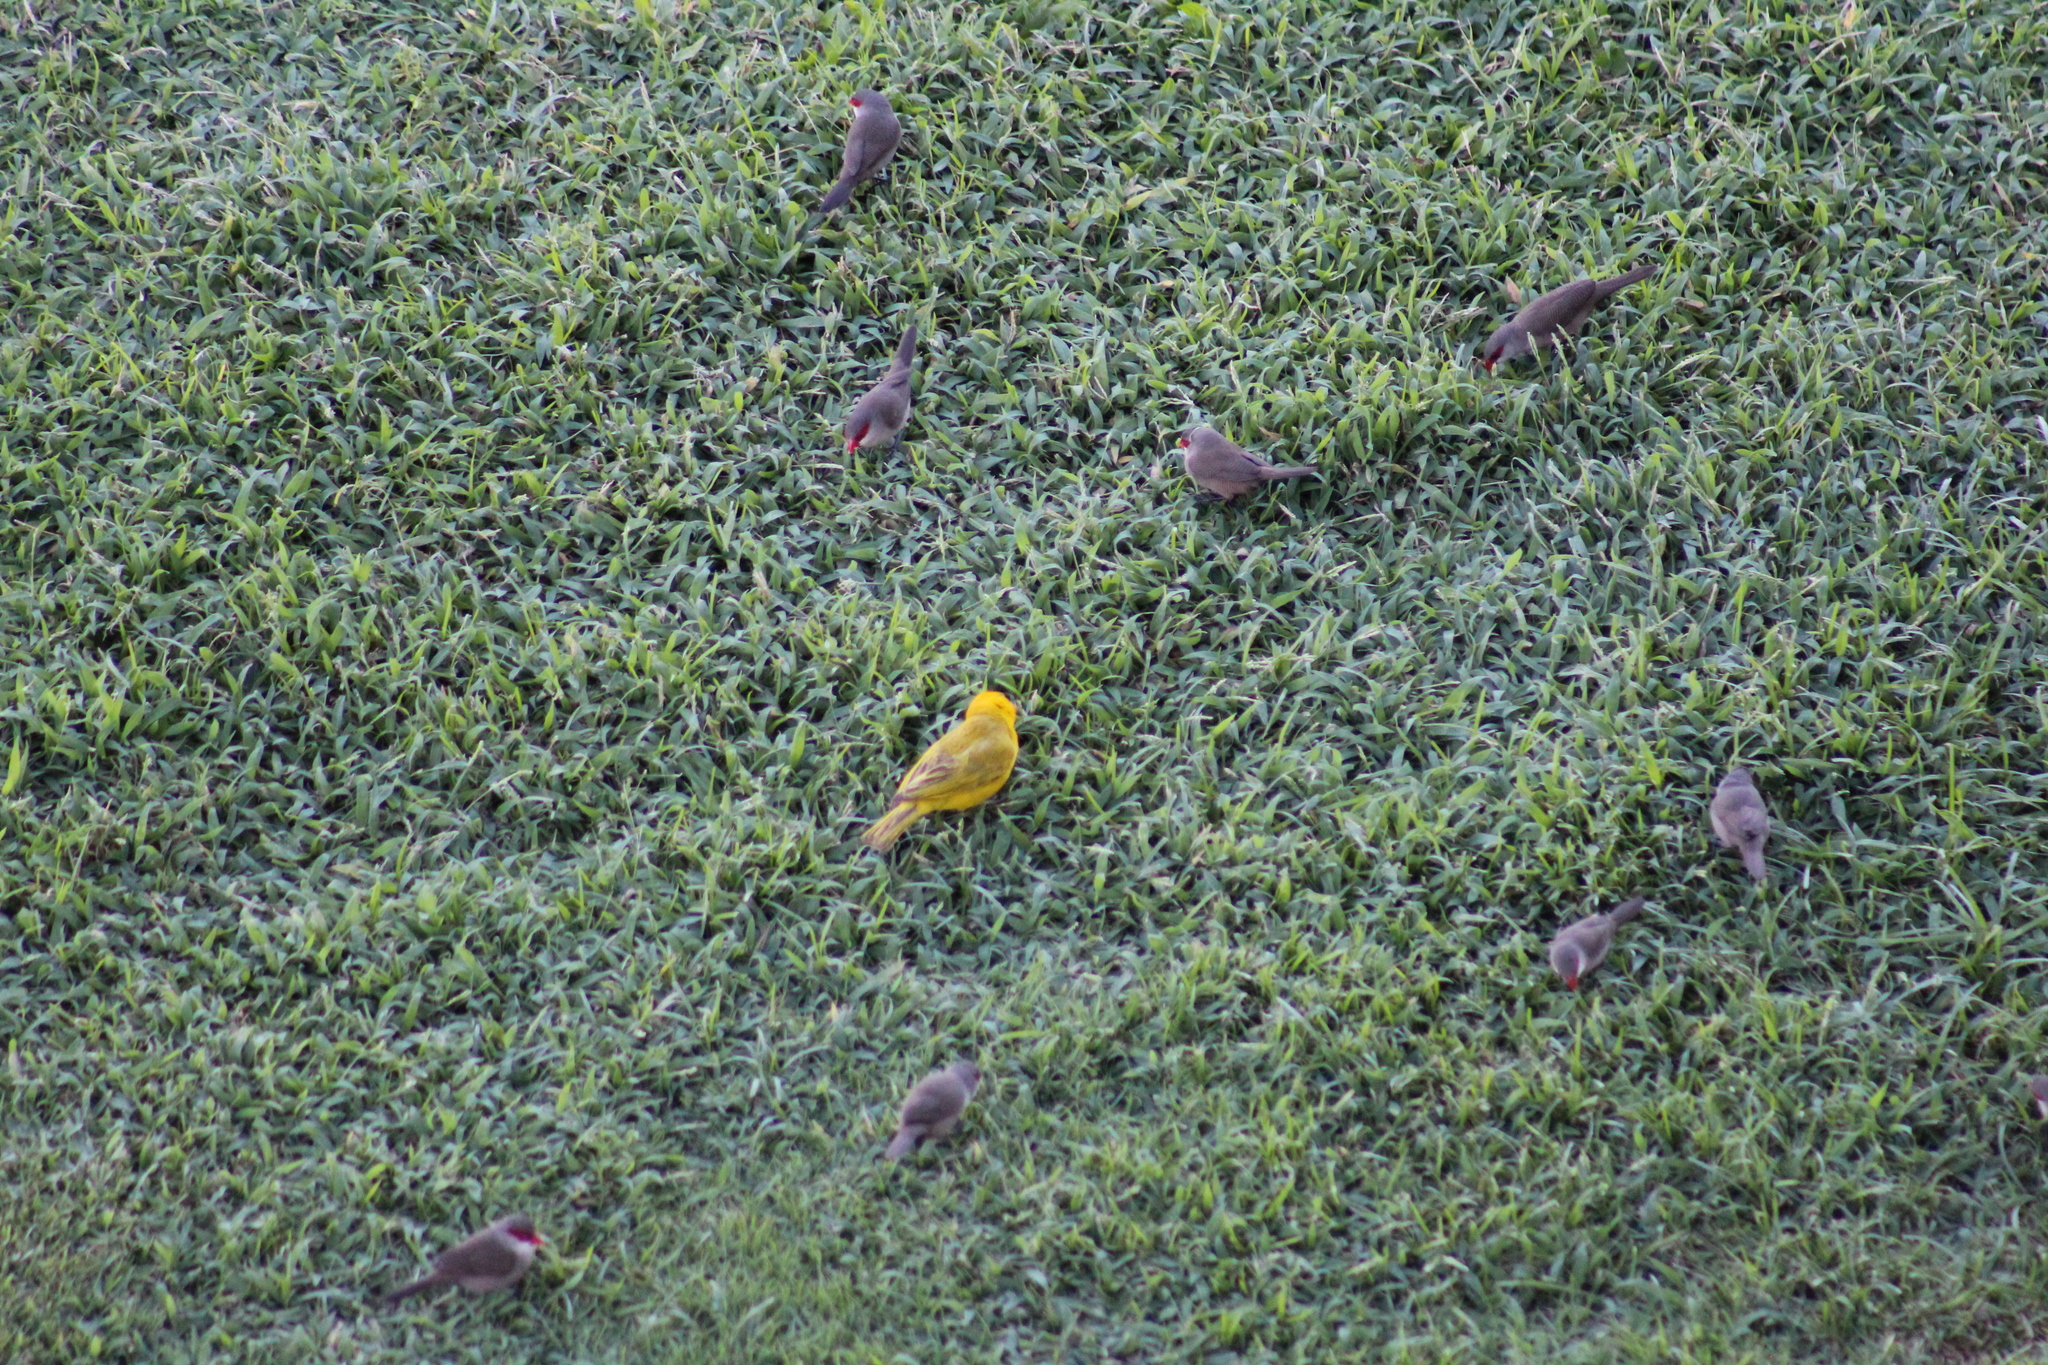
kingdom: Animalia
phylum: Chordata
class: Aves
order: Passeriformes
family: Estrildidae
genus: Estrilda
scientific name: Estrilda astrild
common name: Common waxbill
